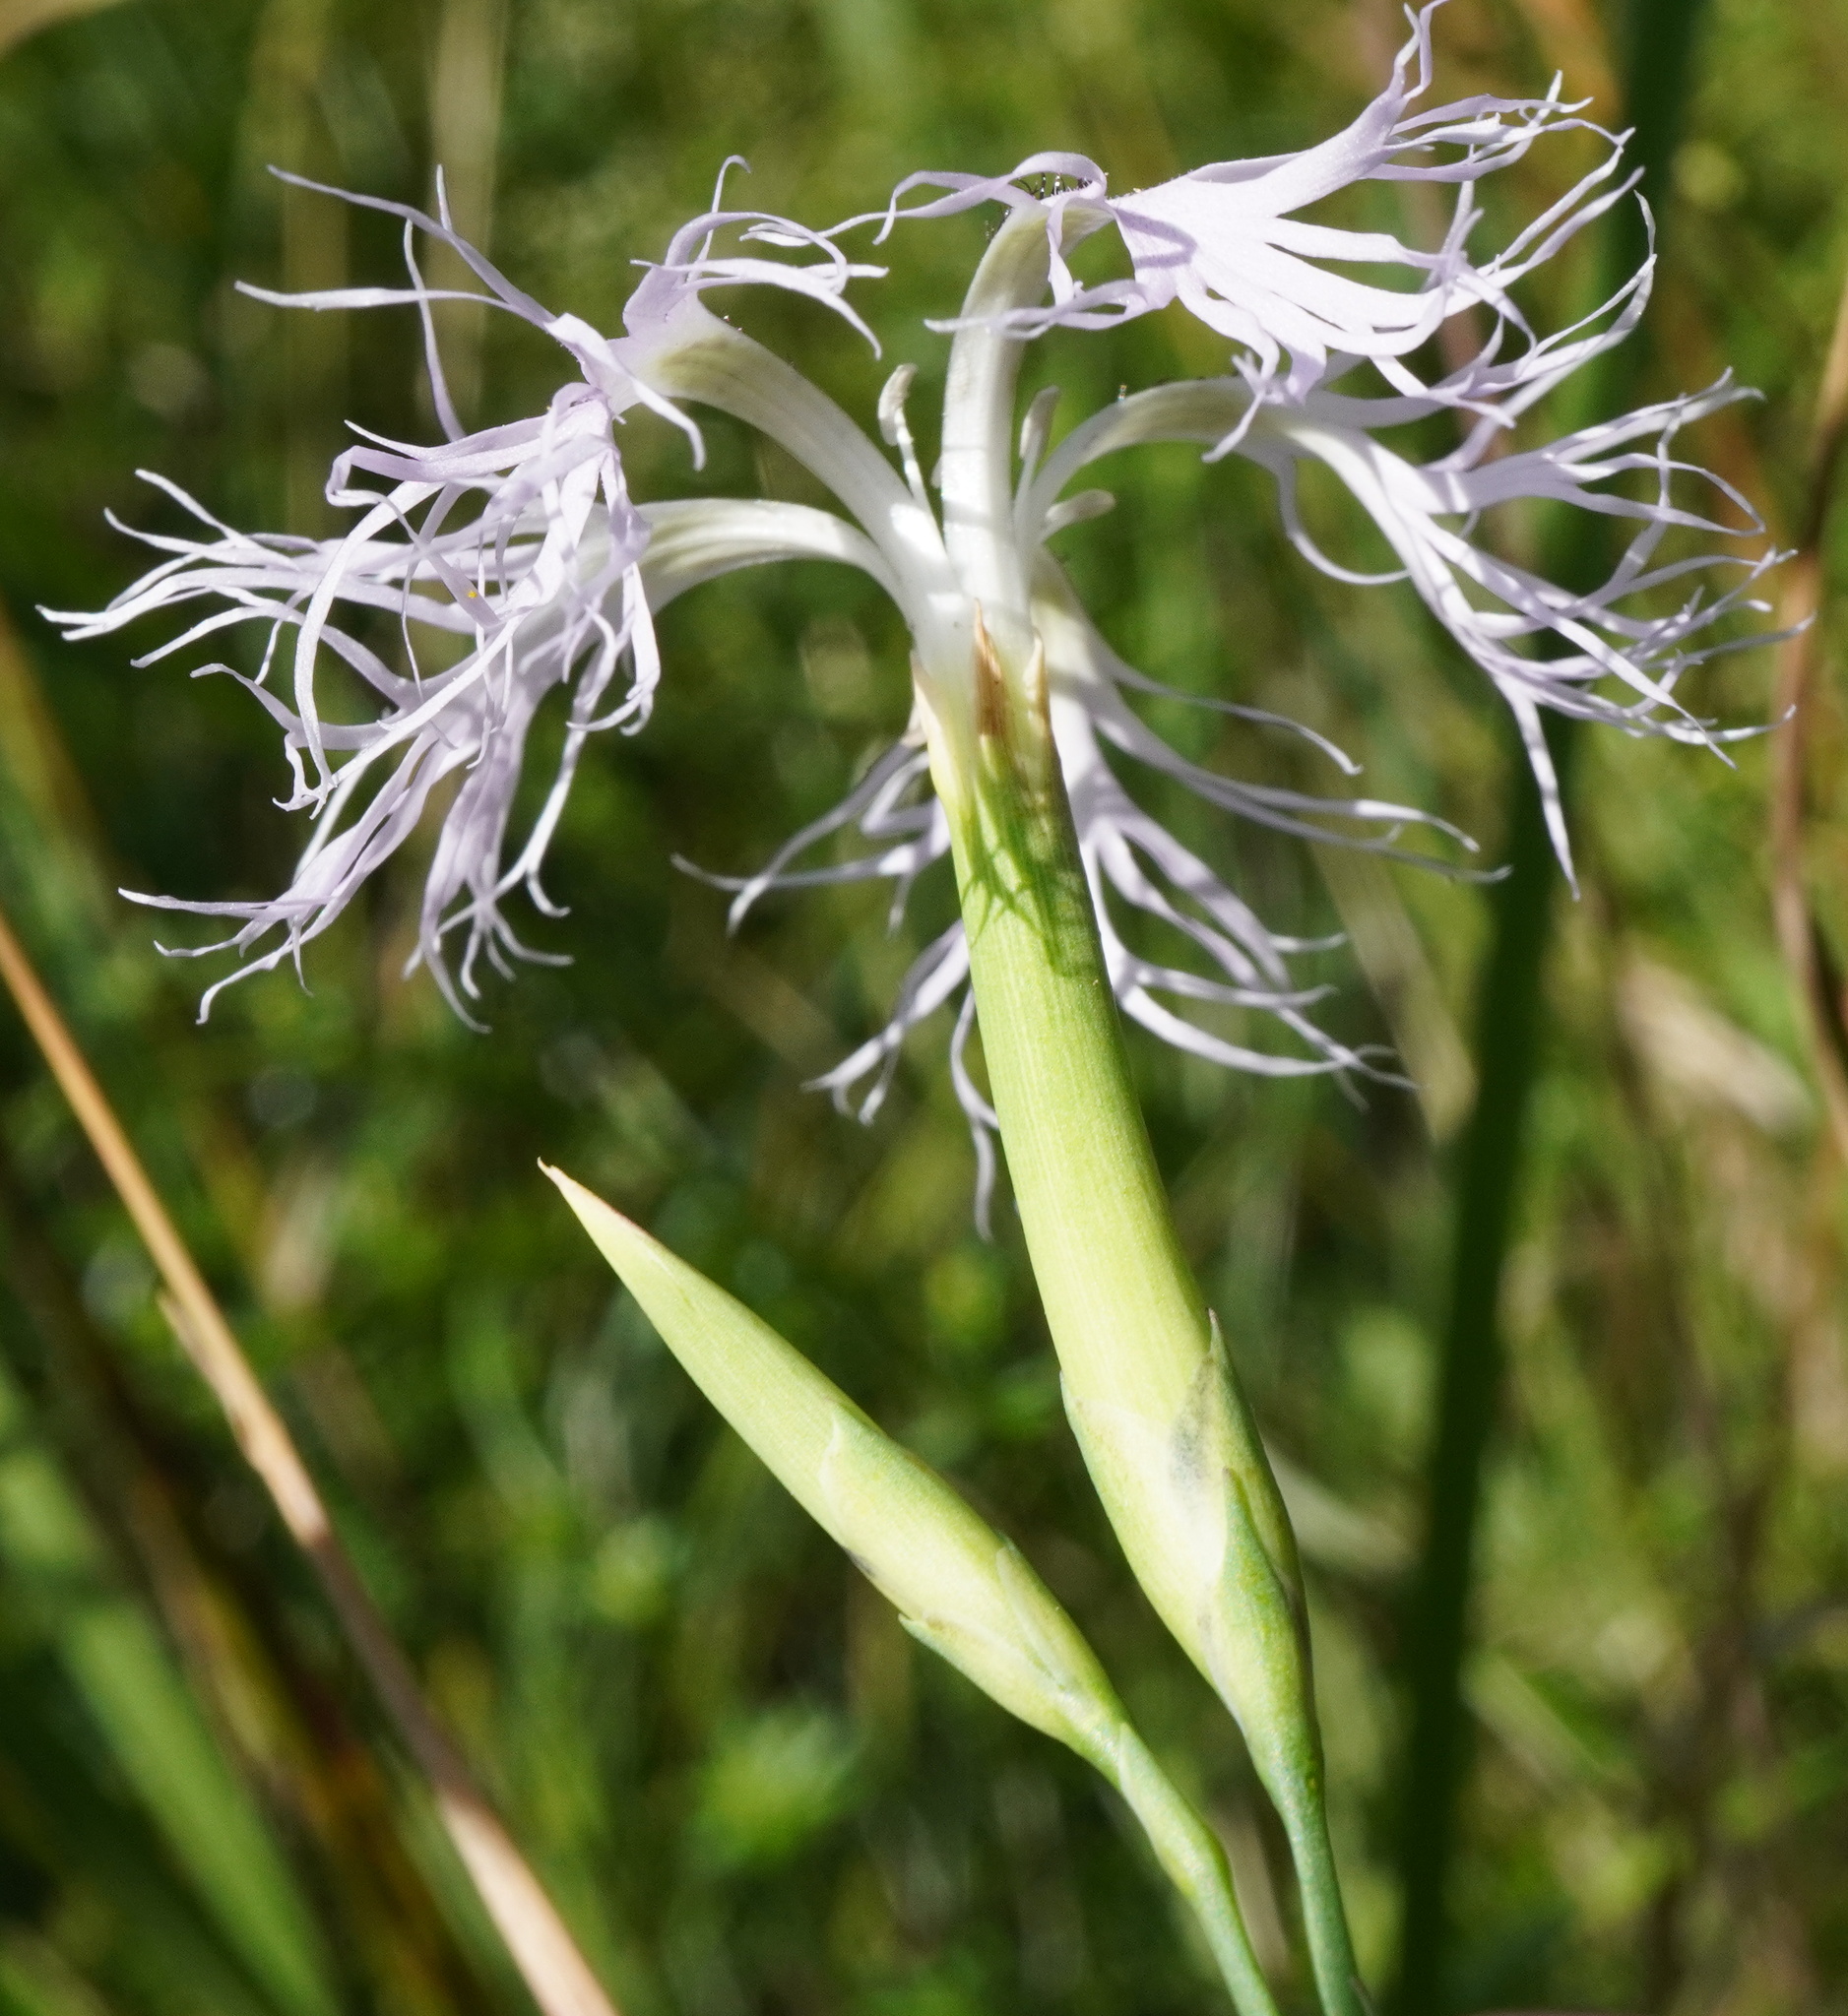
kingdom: Plantae
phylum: Tracheophyta
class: Magnoliopsida
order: Caryophyllales
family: Caryophyllaceae
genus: Dianthus
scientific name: Dianthus superbus
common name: Fringed pink
